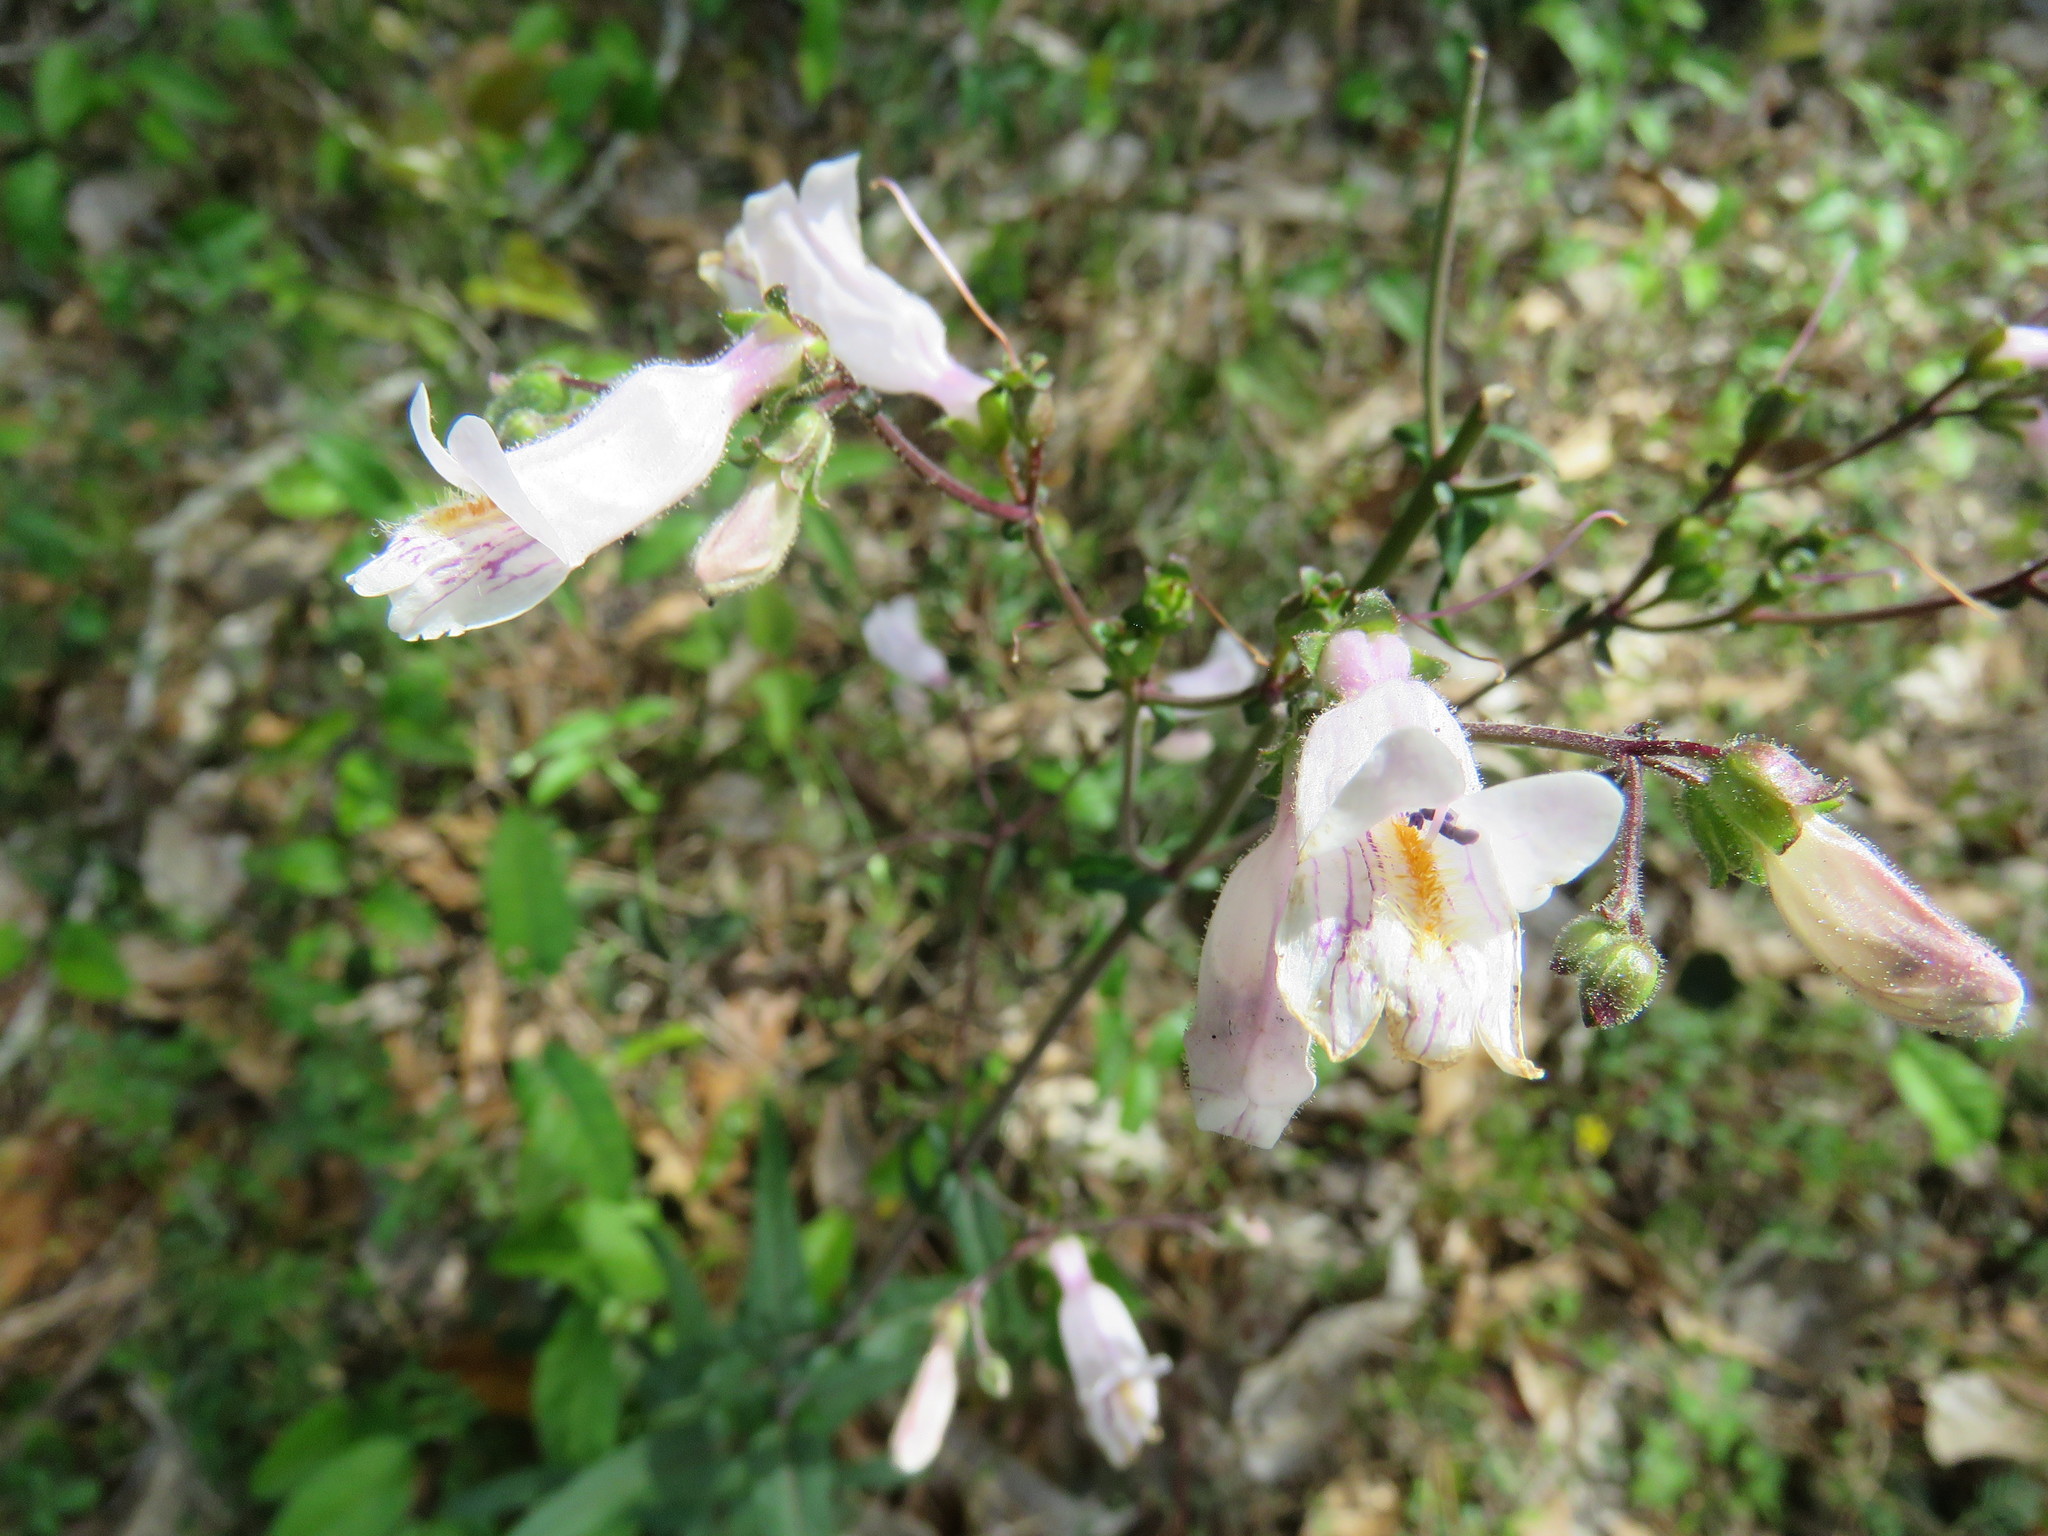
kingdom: Plantae
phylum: Tracheophyta
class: Magnoliopsida
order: Lamiales
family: Plantaginaceae
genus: Penstemon
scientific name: Penstemon laxiflorus
